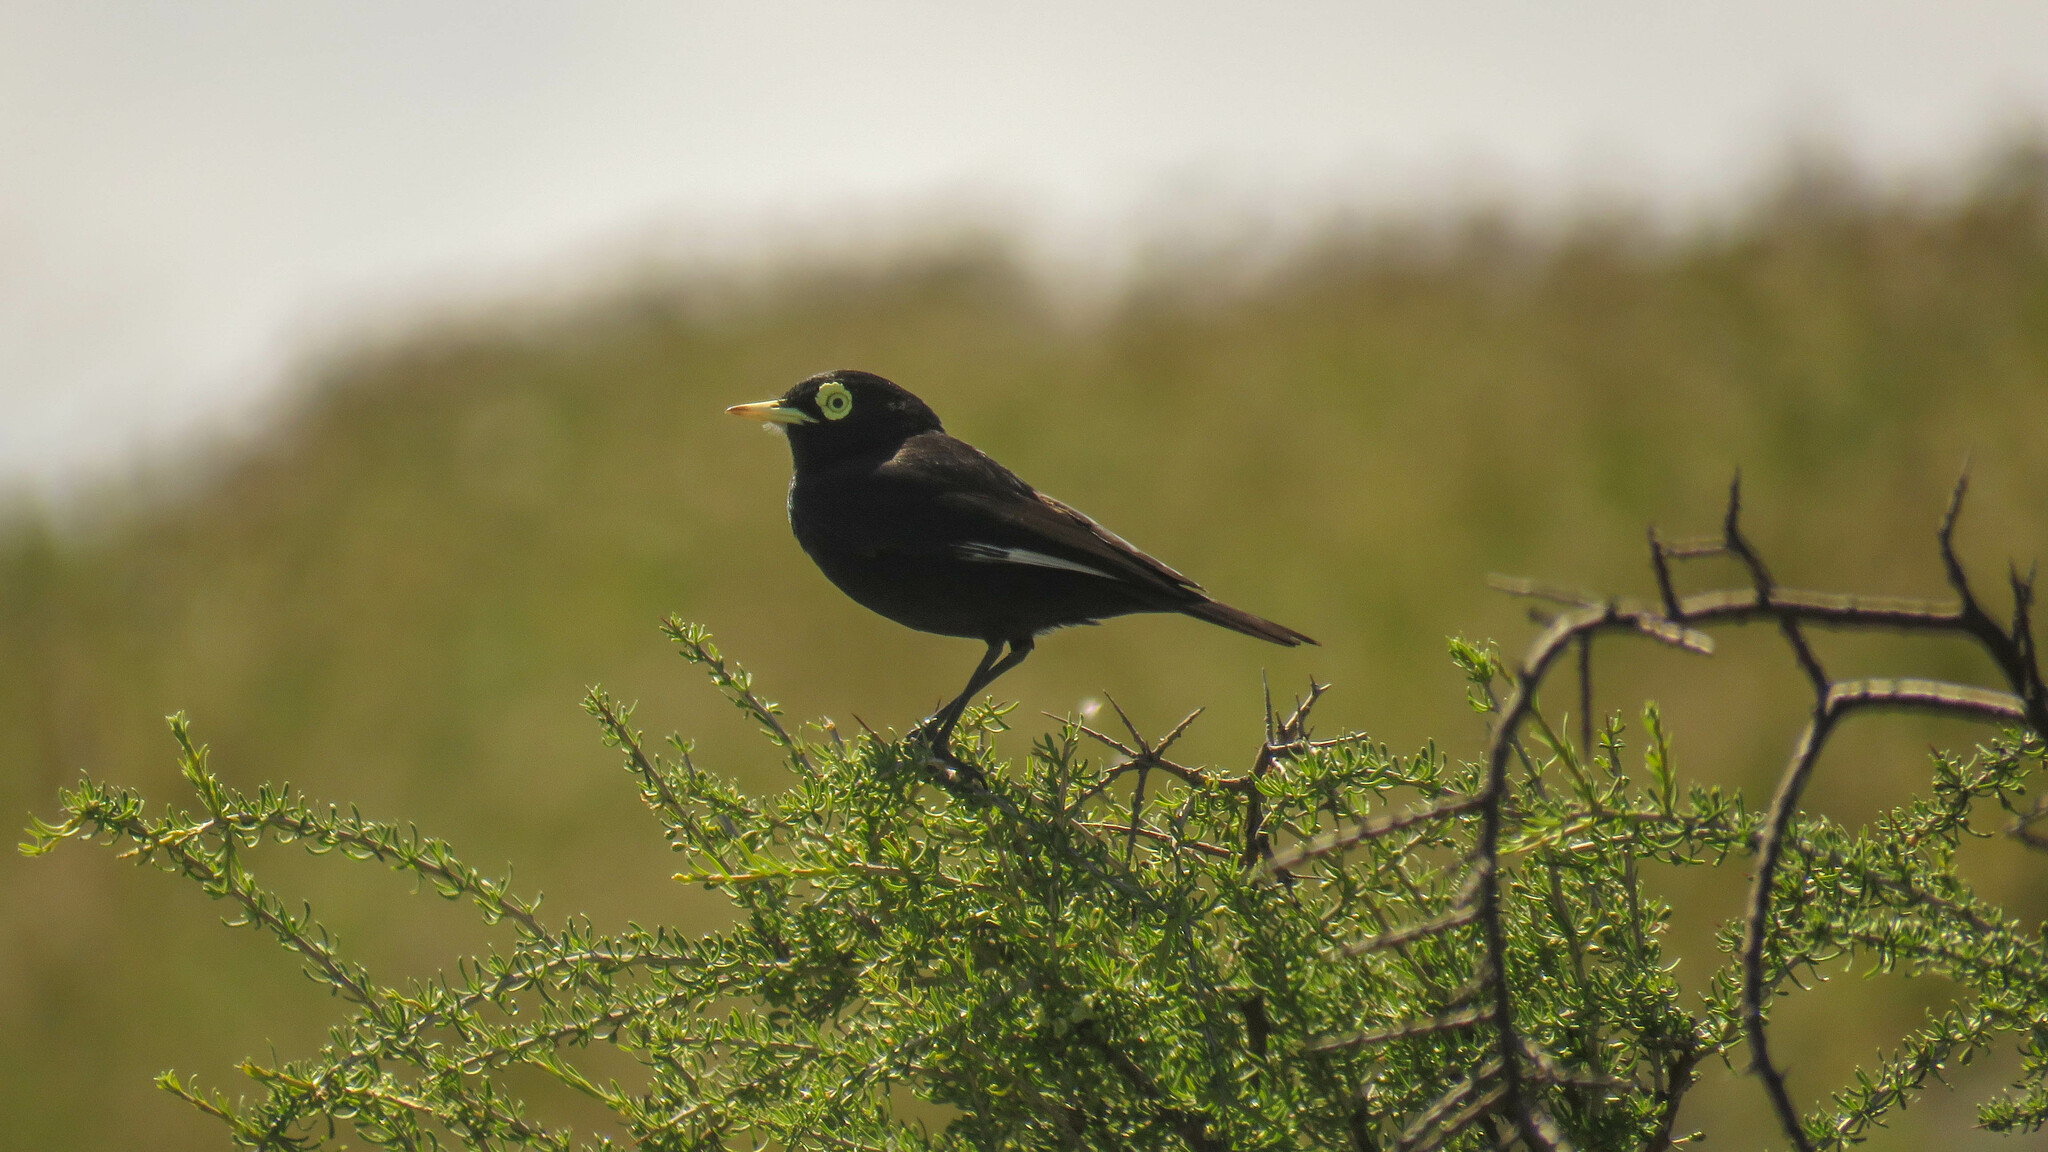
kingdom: Animalia
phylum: Chordata
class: Aves
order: Passeriformes
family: Tyrannidae
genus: Hymenops
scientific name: Hymenops perspicillatus
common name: Spectacled tyrant
